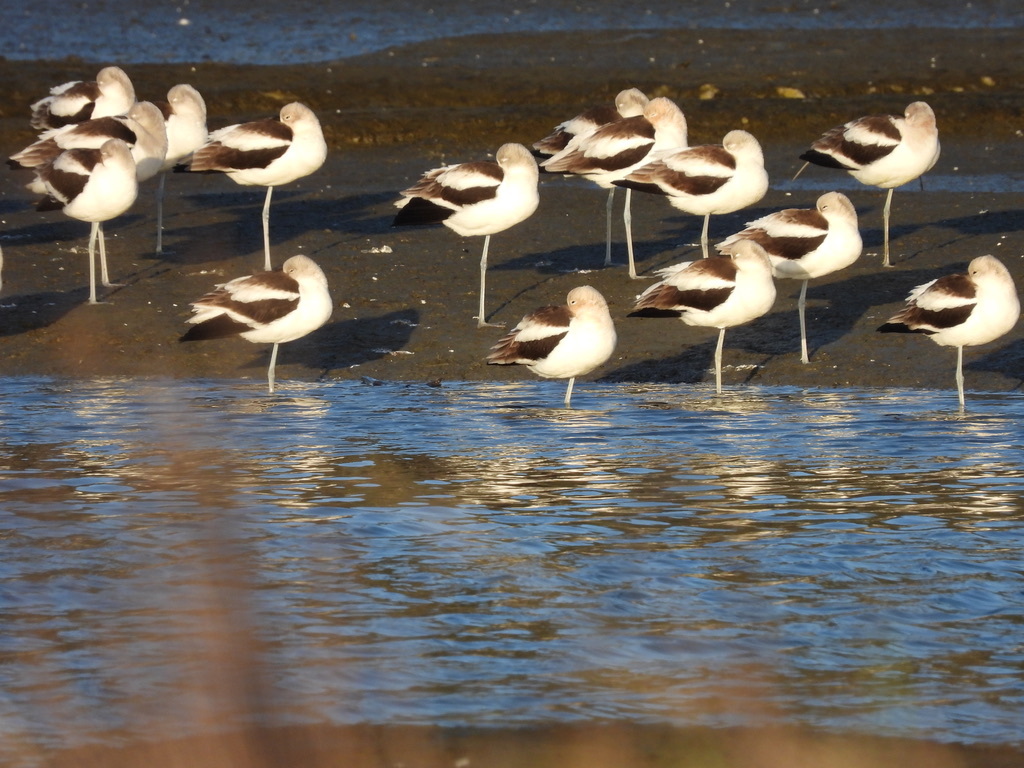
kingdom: Animalia
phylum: Chordata
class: Aves
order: Charadriiformes
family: Recurvirostridae
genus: Recurvirostra
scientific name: Recurvirostra americana
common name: American avocet
